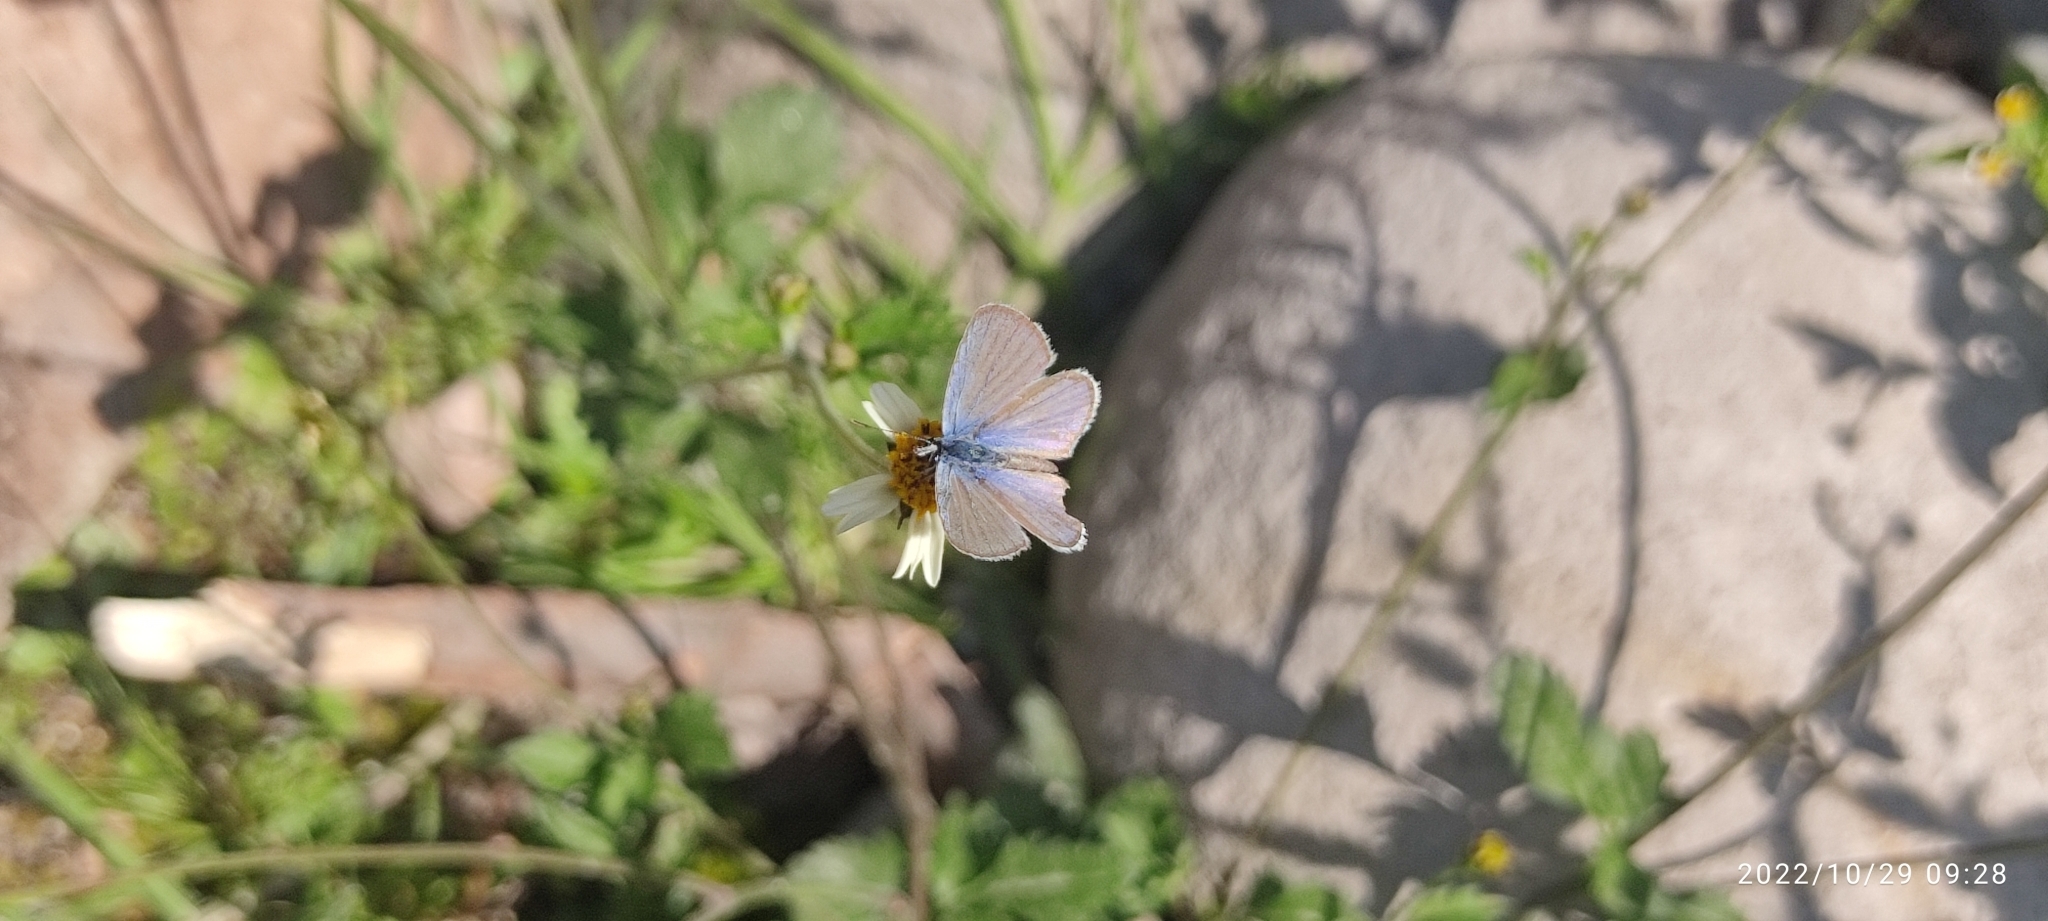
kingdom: Animalia
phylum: Arthropoda
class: Insecta
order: Lepidoptera
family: Lycaenidae
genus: Hemiargus
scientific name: Hemiargus hanno
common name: Common blue
